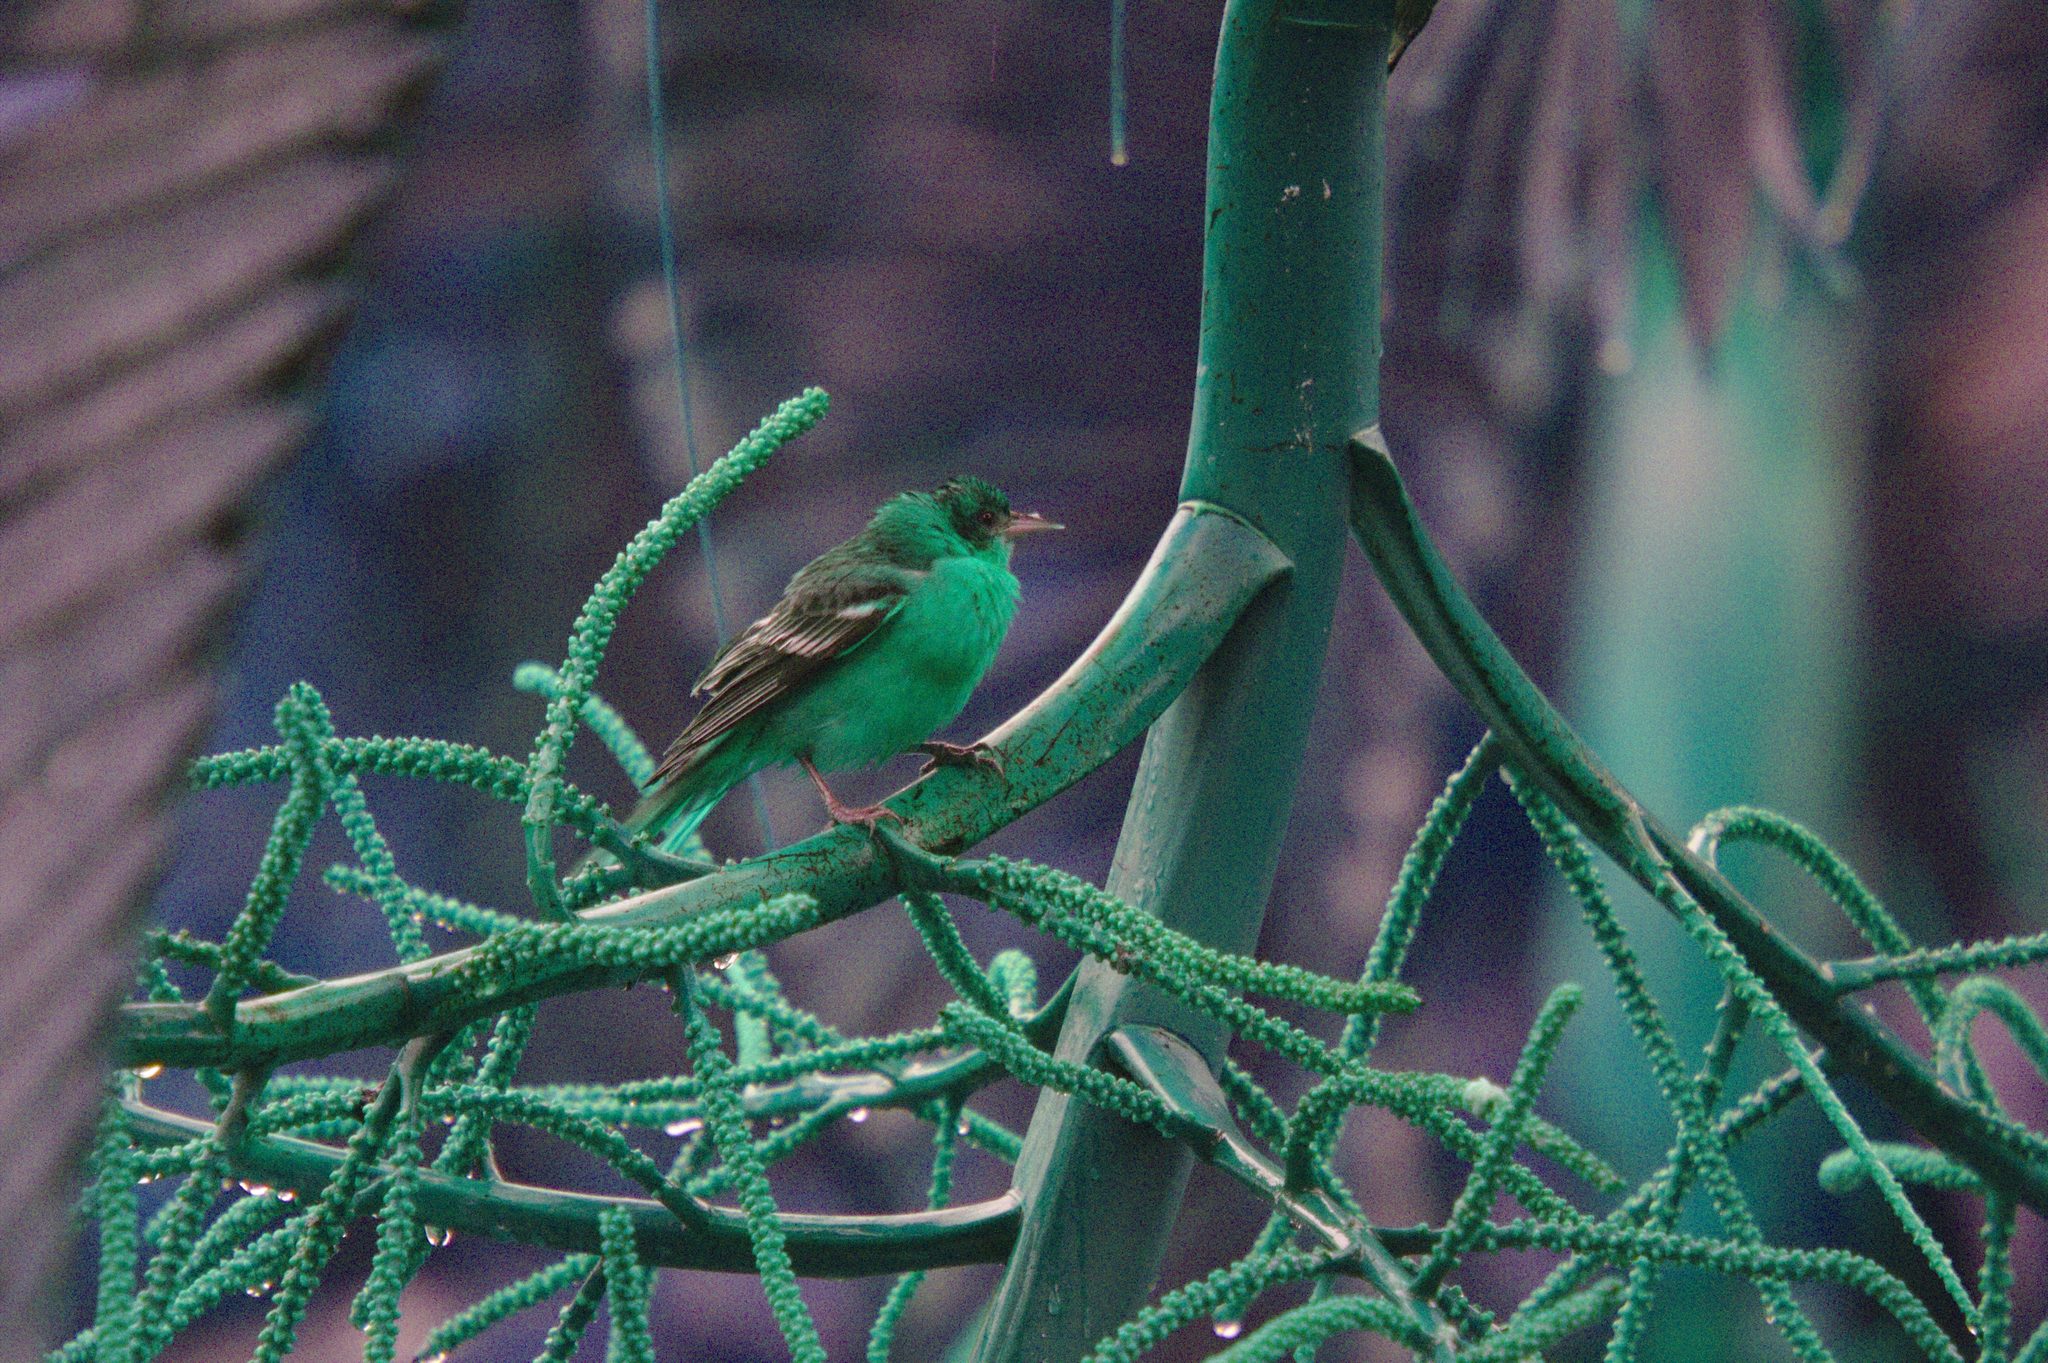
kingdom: Animalia
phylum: Chordata
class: Aves
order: Passeriformes
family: Icteridae
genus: Icterus
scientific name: Icterus galbula
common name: Baltimore oriole
